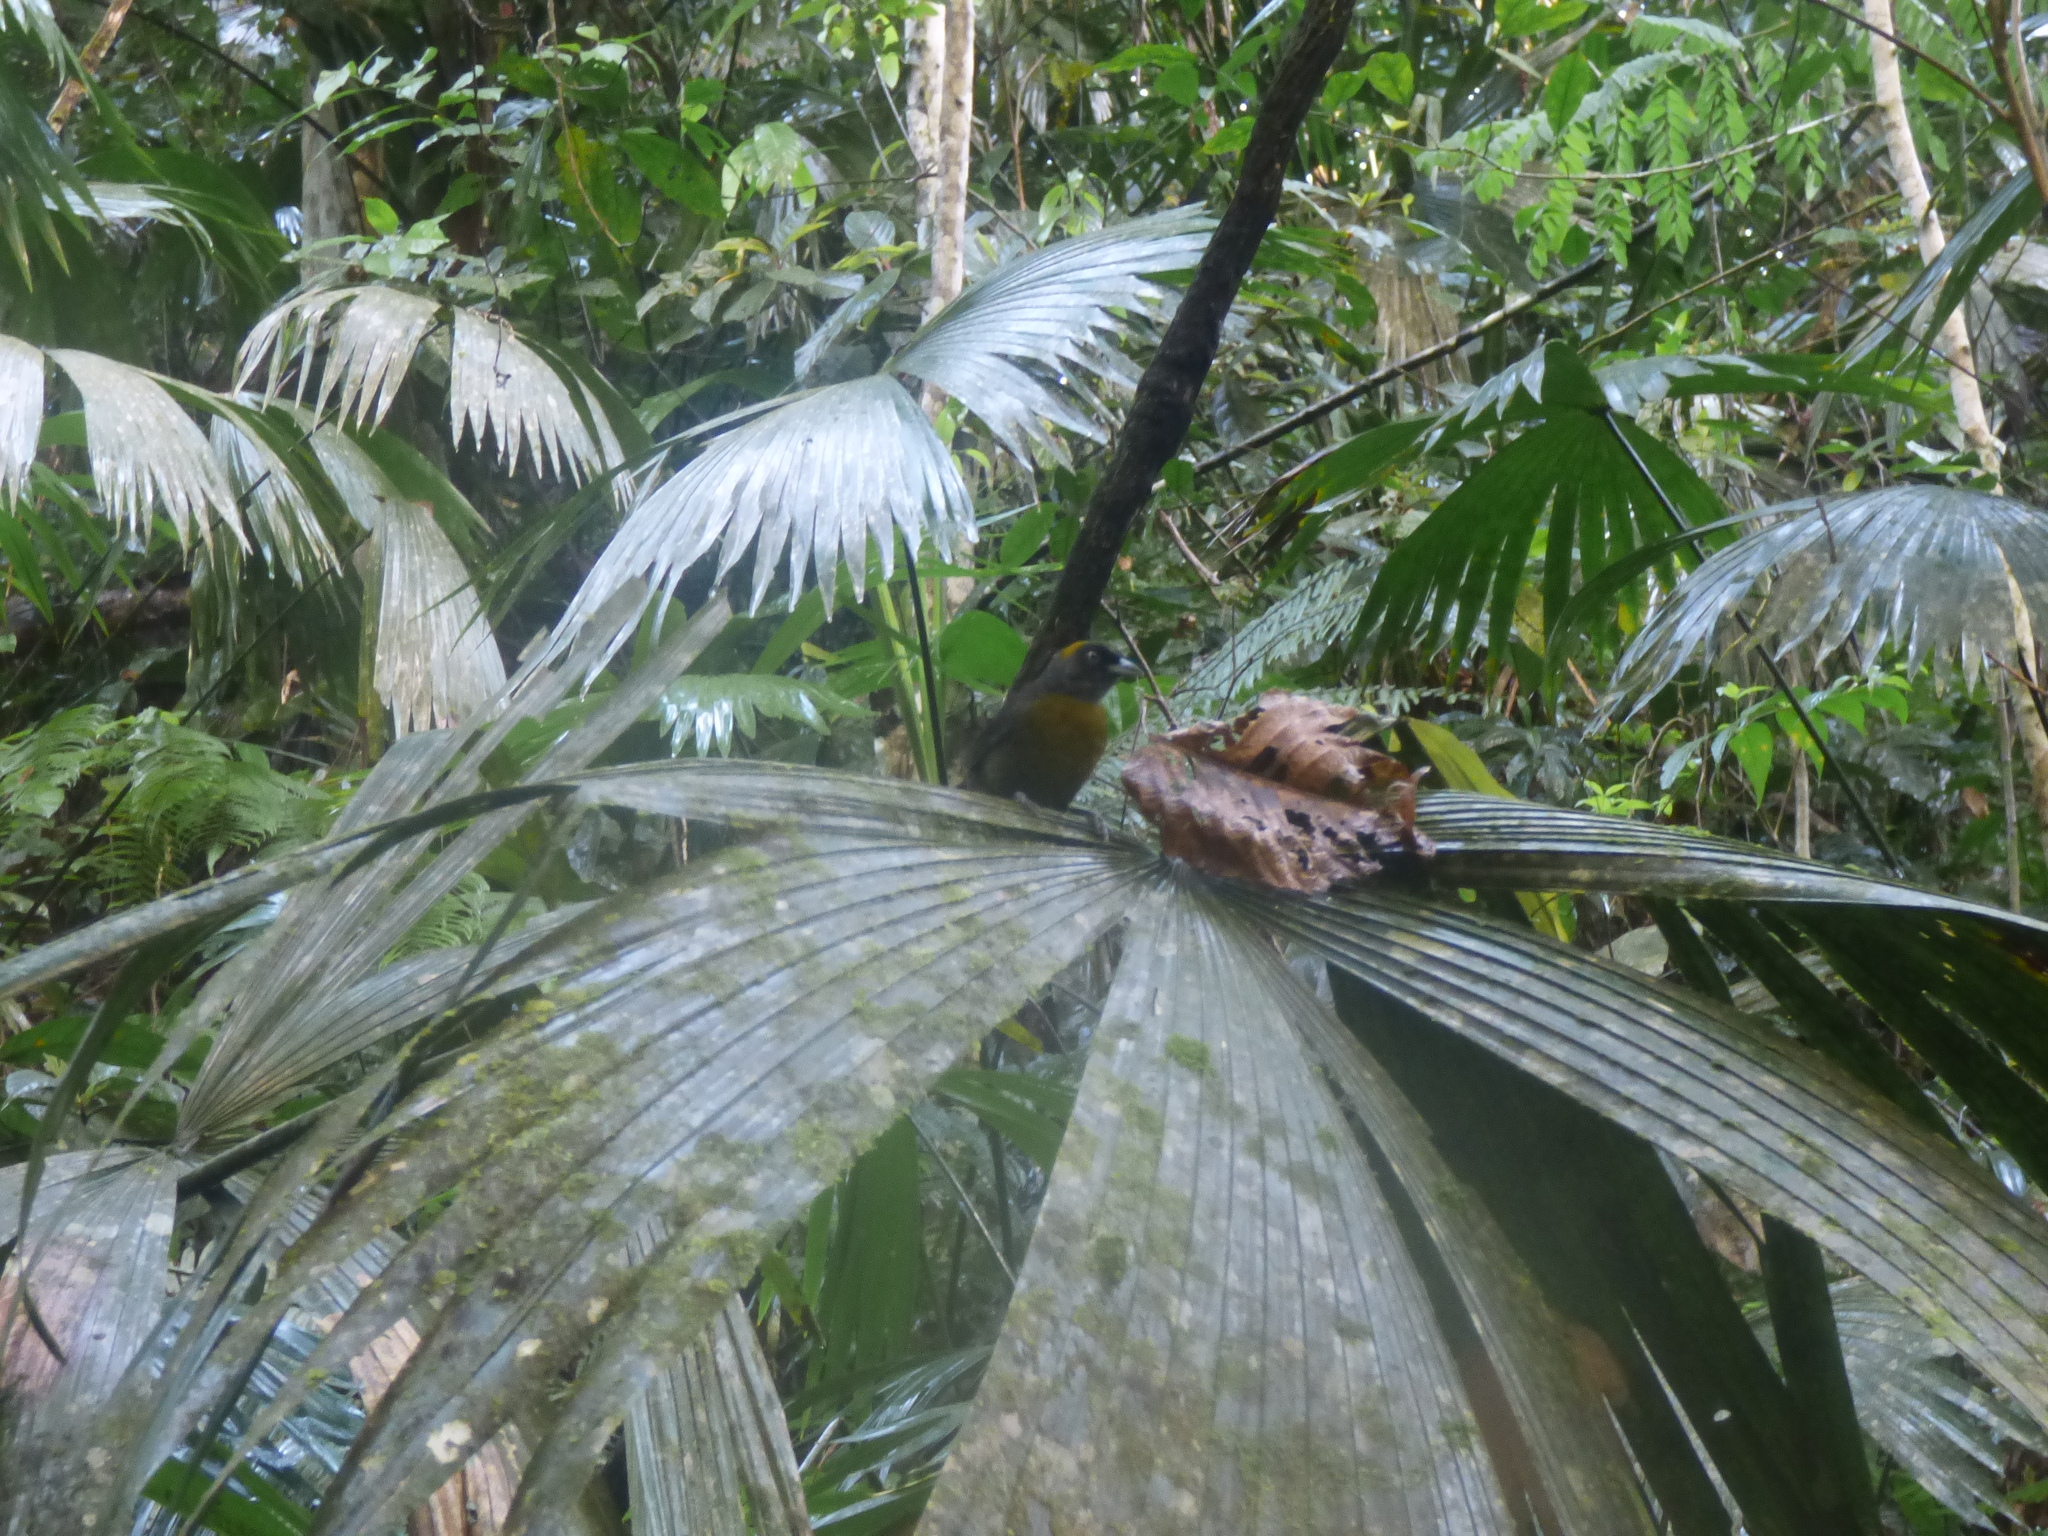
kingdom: Animalia
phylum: Chordata
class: Aves
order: Passeriformes
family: Mitrospingidae
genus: Mitrospingus
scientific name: Mitrospingus cassinii
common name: Dusky-faced tanager
